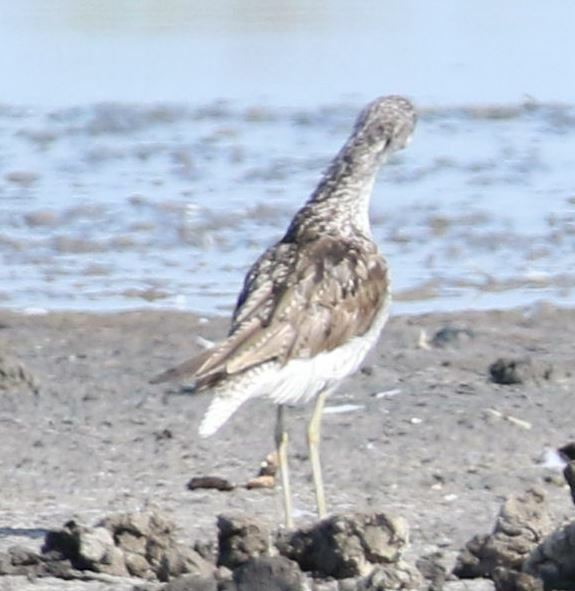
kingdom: Animalia
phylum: Chordata
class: Aves
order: Charadriiformes
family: Scolopacidae
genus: Tringa
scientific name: Tringa nebularia
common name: Common greenshank
